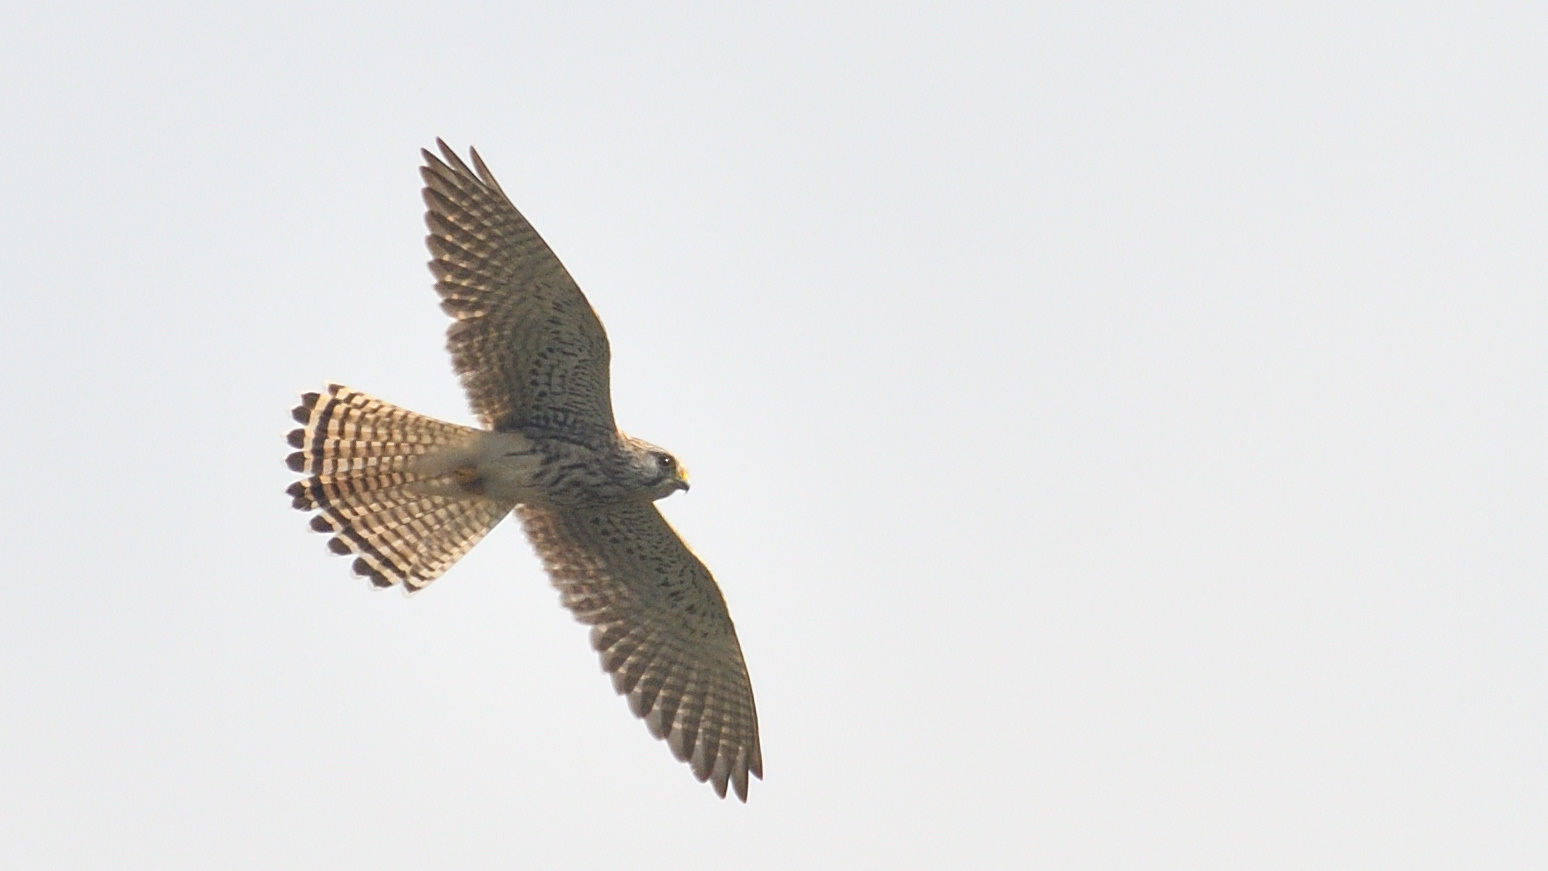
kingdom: Animalia
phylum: Chordata
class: Aves
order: Falconiformes
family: Falconidae
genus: Falco
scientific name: Falco tinnunculus
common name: Common kestrel
